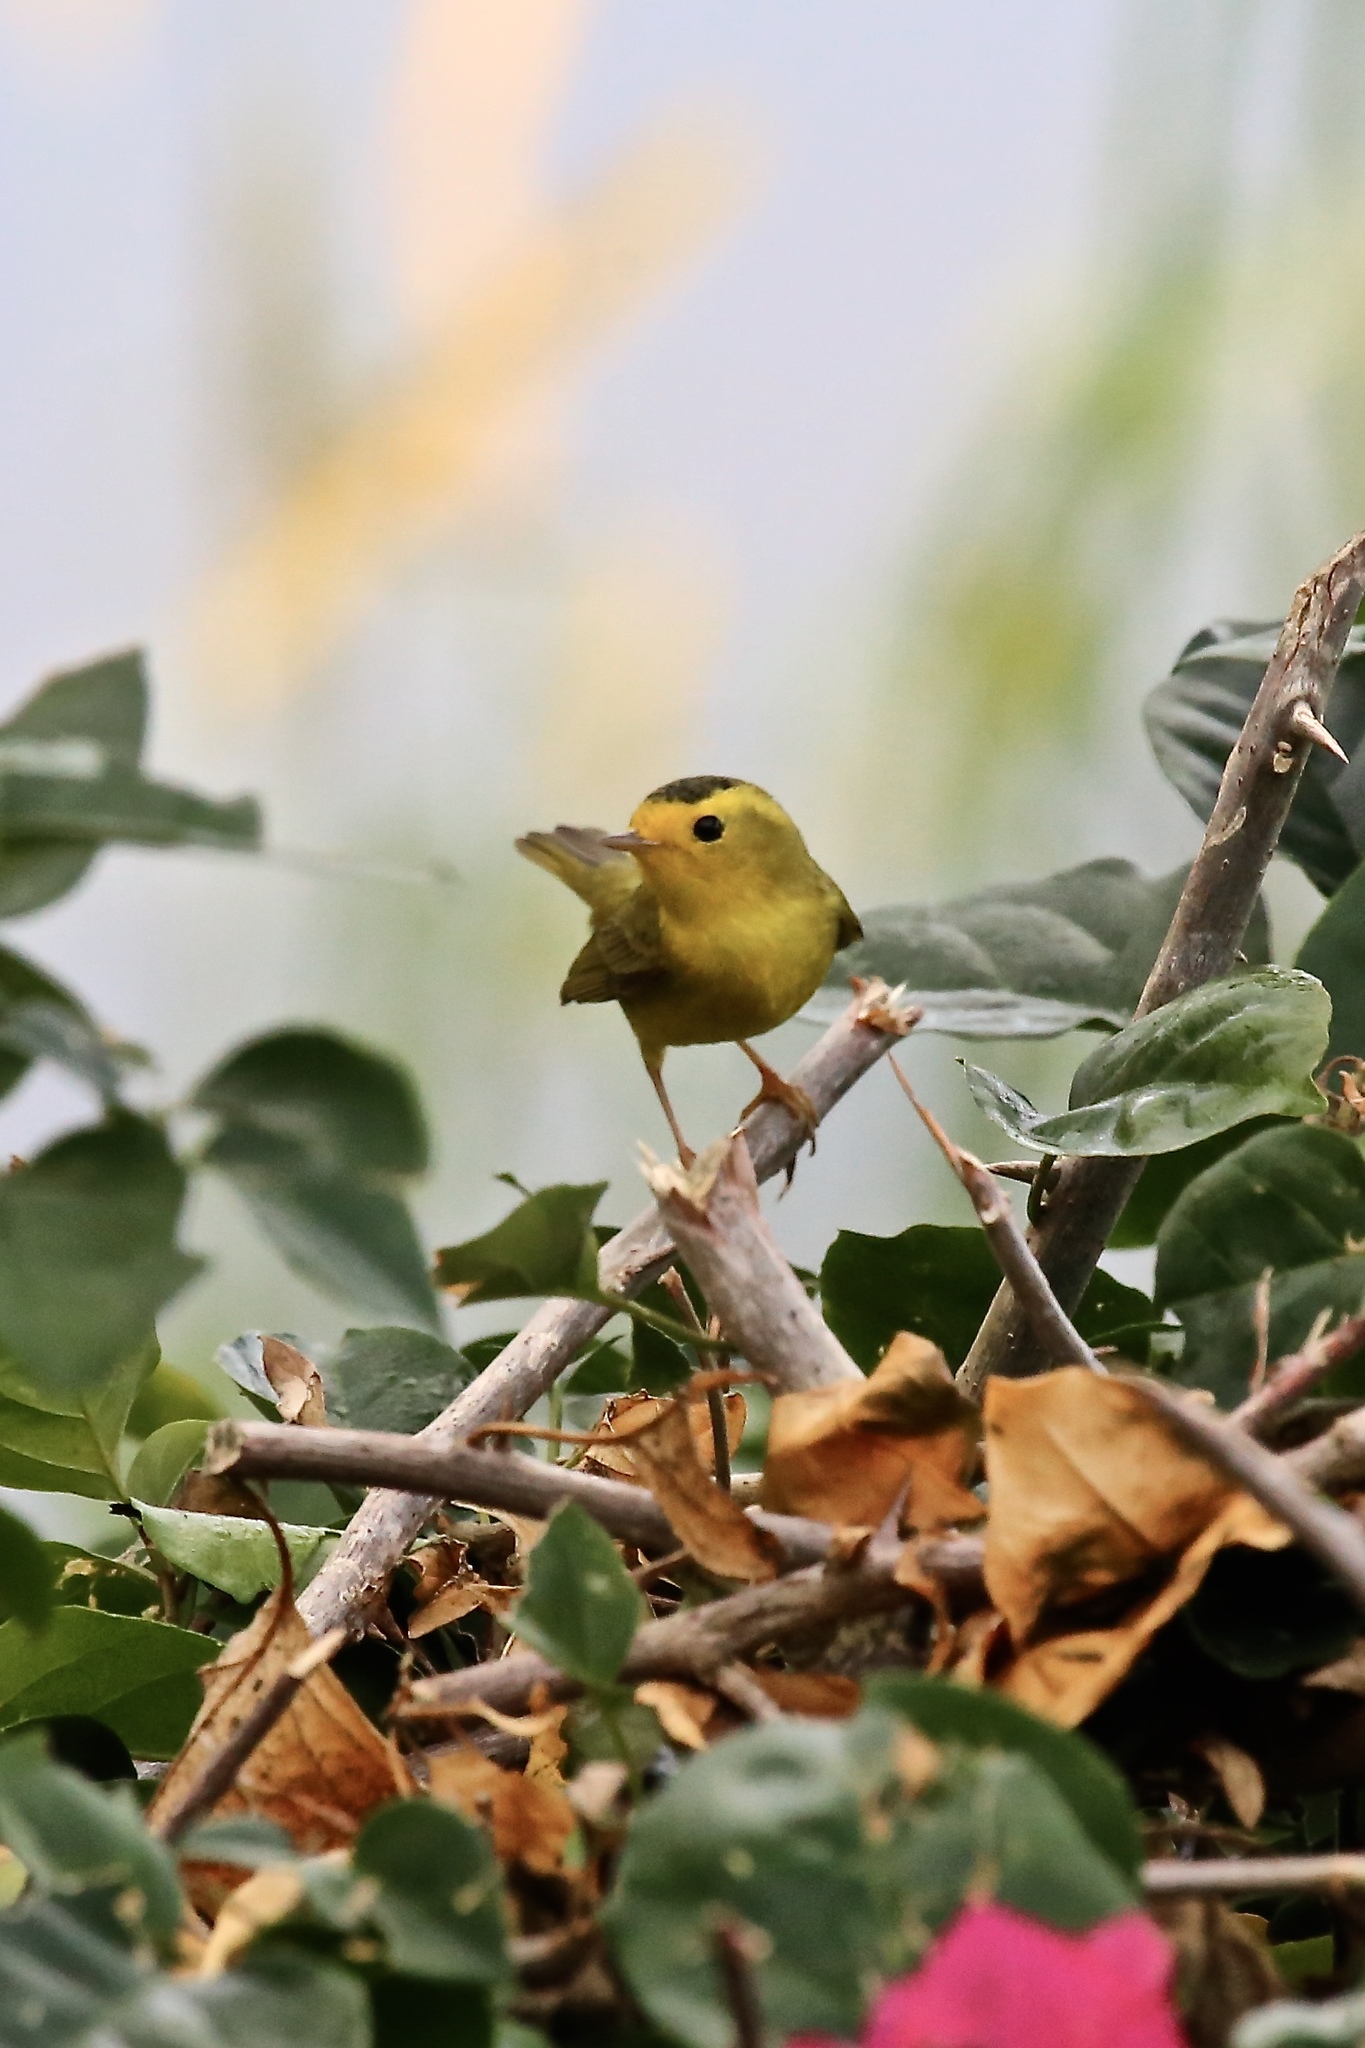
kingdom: Animalia
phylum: Chordata
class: Aves
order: Passeriformes
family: Parulidae
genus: Cardellina
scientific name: Cardellina pusilla
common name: Wilson's warbler
